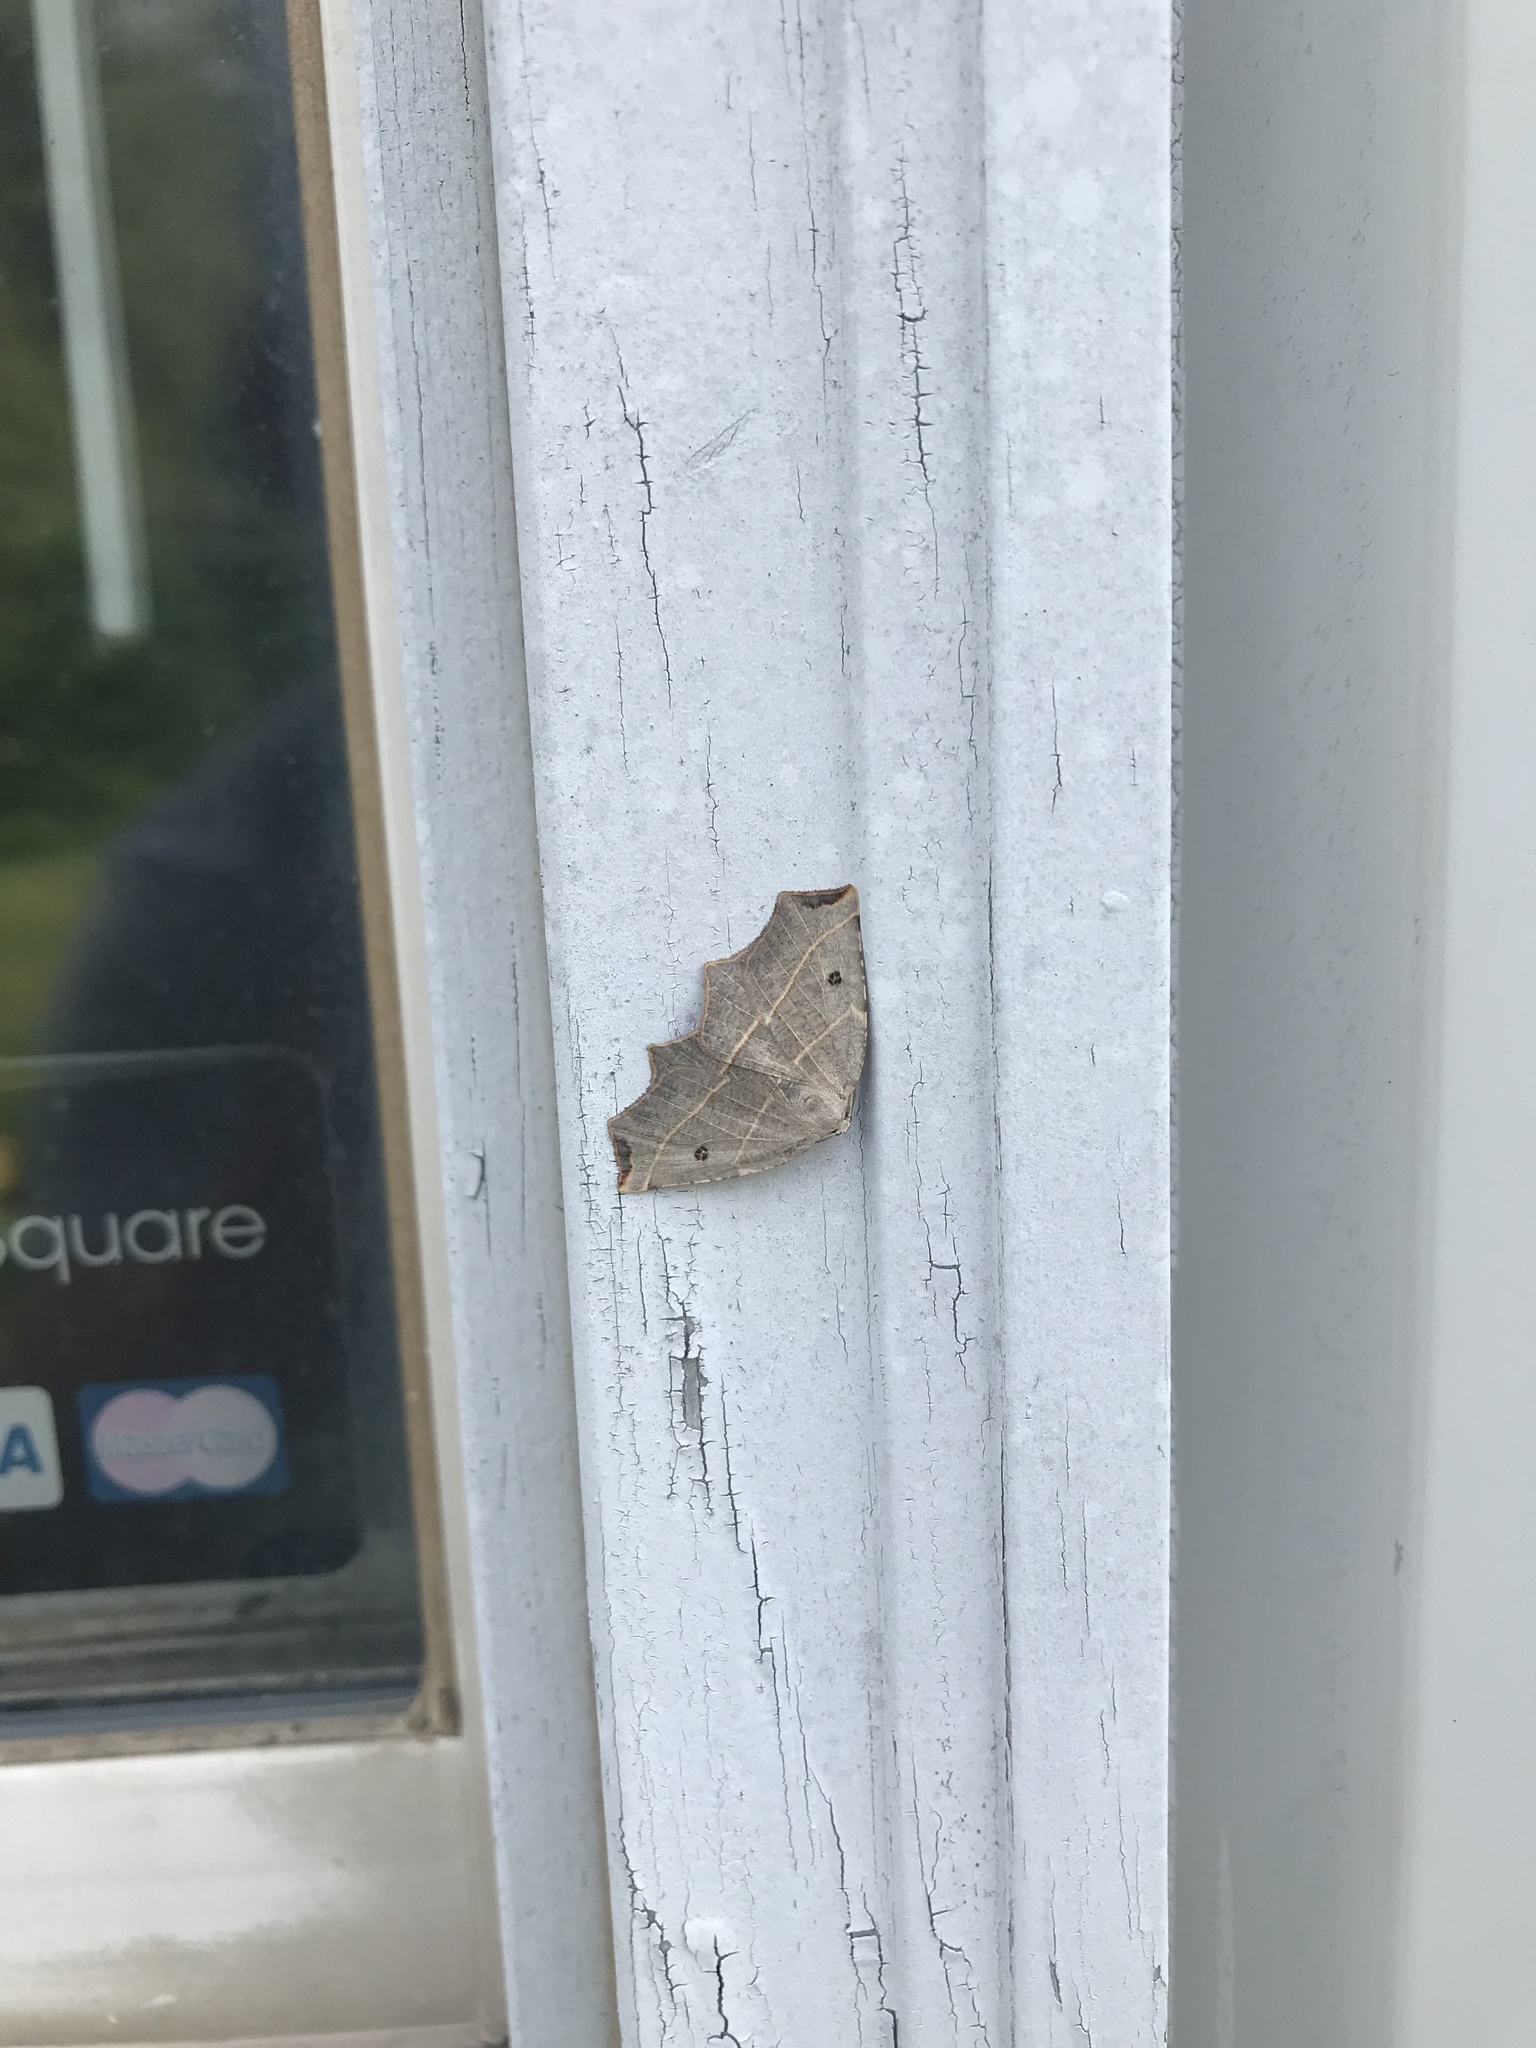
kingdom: Animalia
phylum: Arthropoda
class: Insecta
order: Lepidoptera
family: Geometridae
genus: Metanema
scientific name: Metanema inatomaria
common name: Pale metanema
